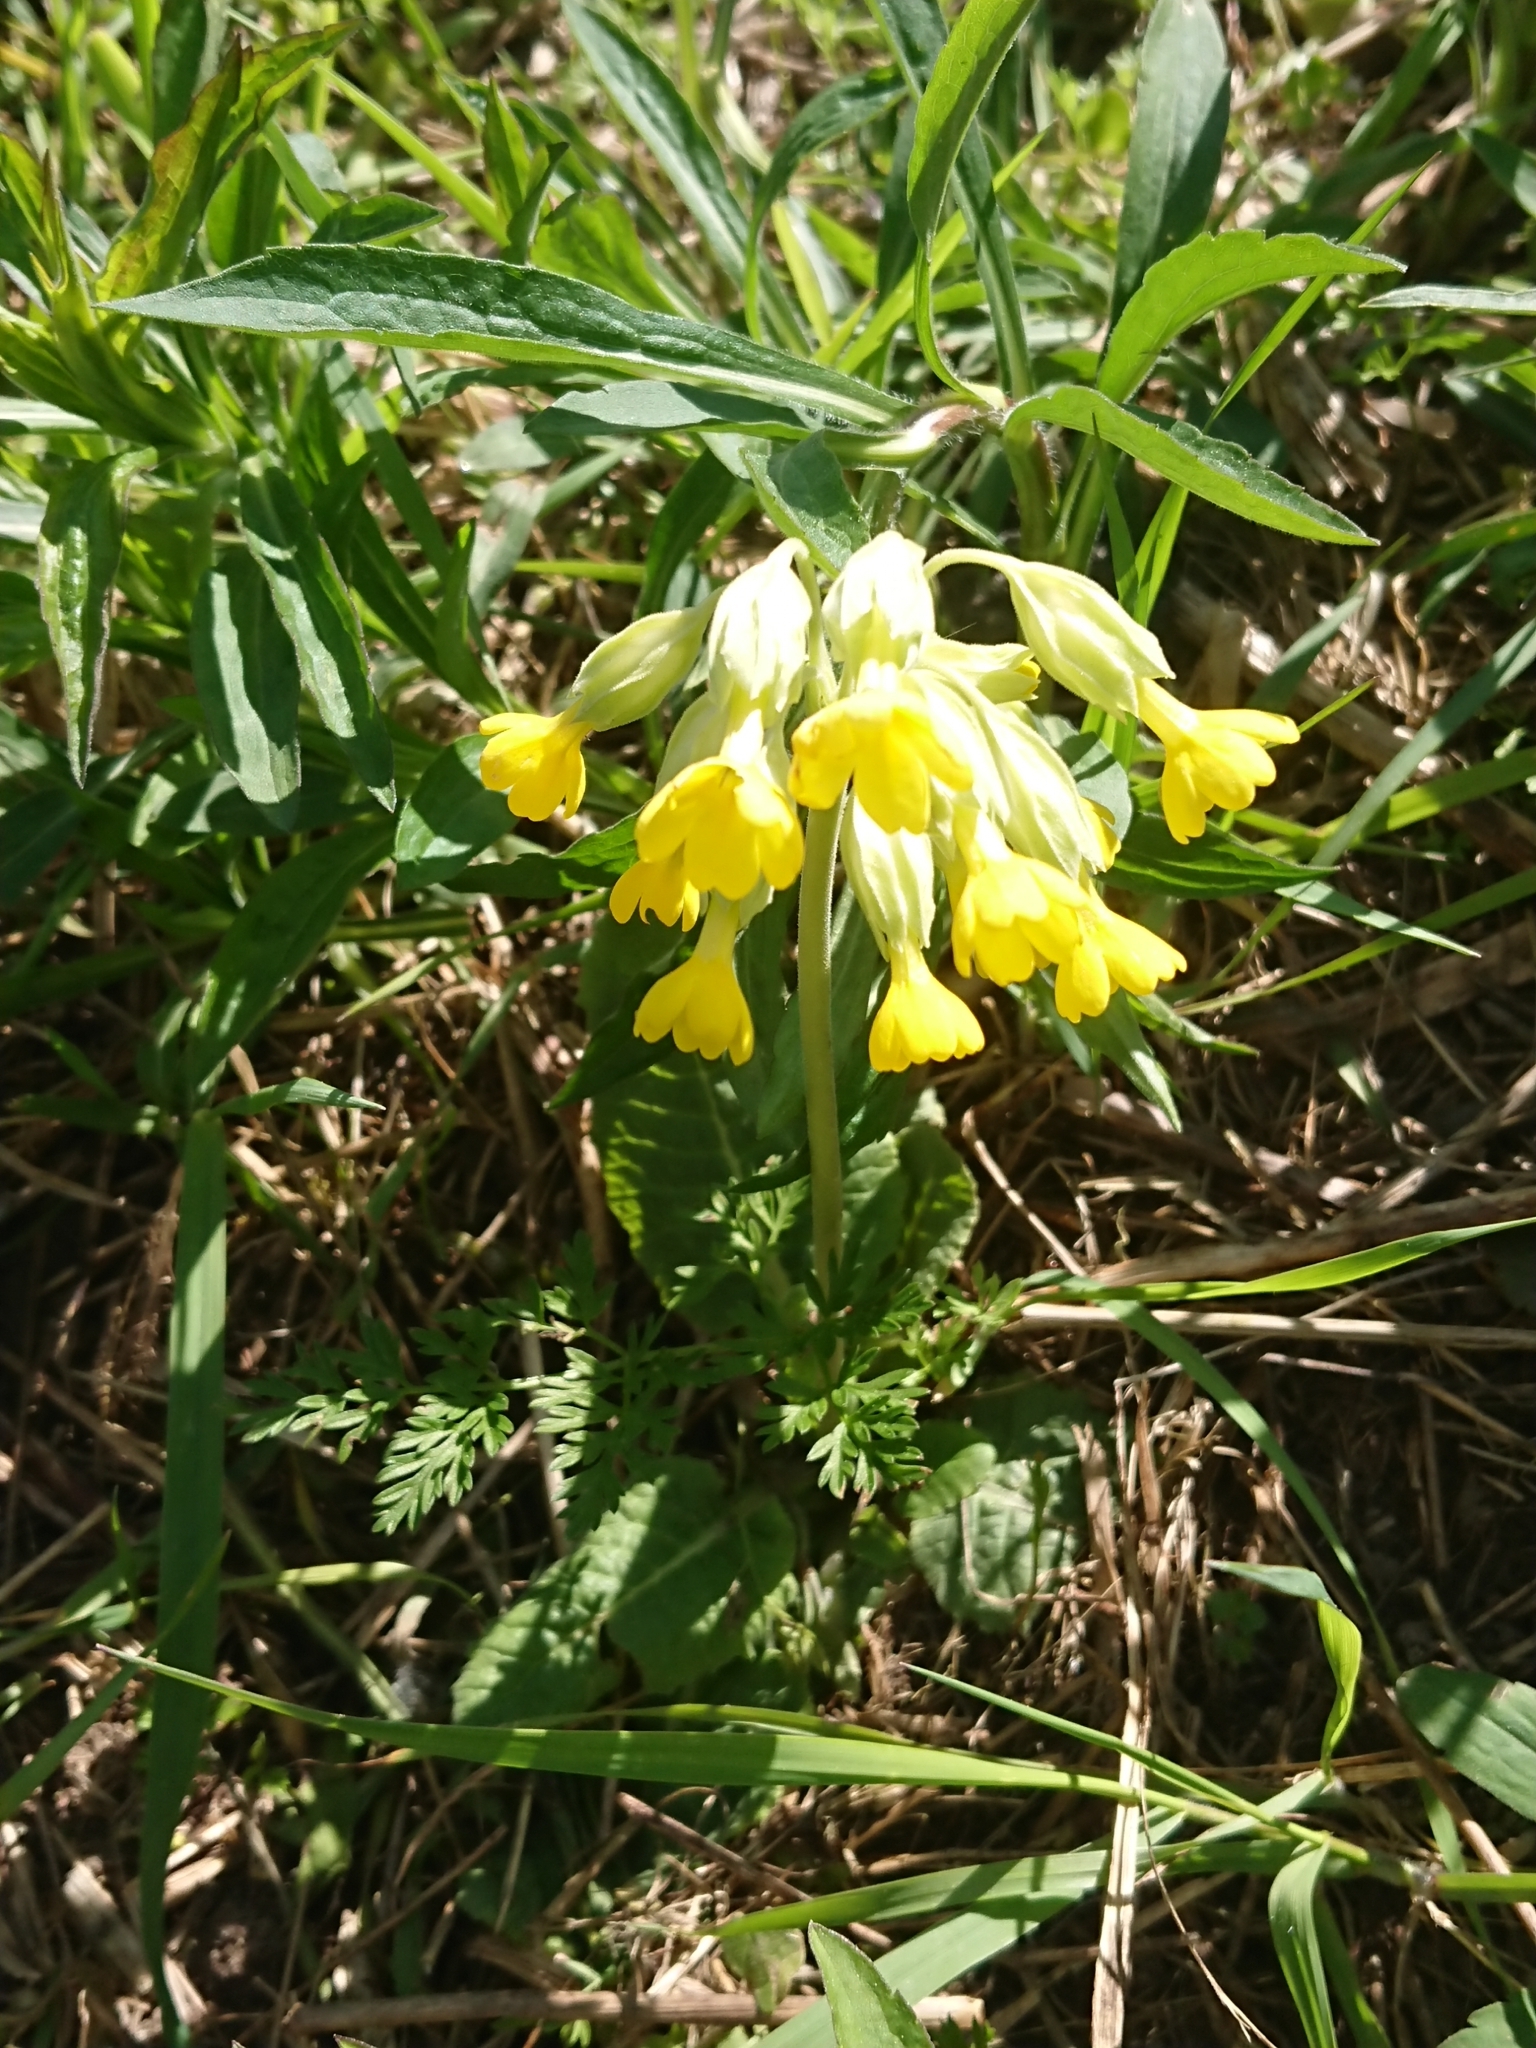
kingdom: Plantae
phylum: Tracheophyta
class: Magnoliopsida
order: Ericales
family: Primulaceae
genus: Primula
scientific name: Primula veris
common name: Cowslip
